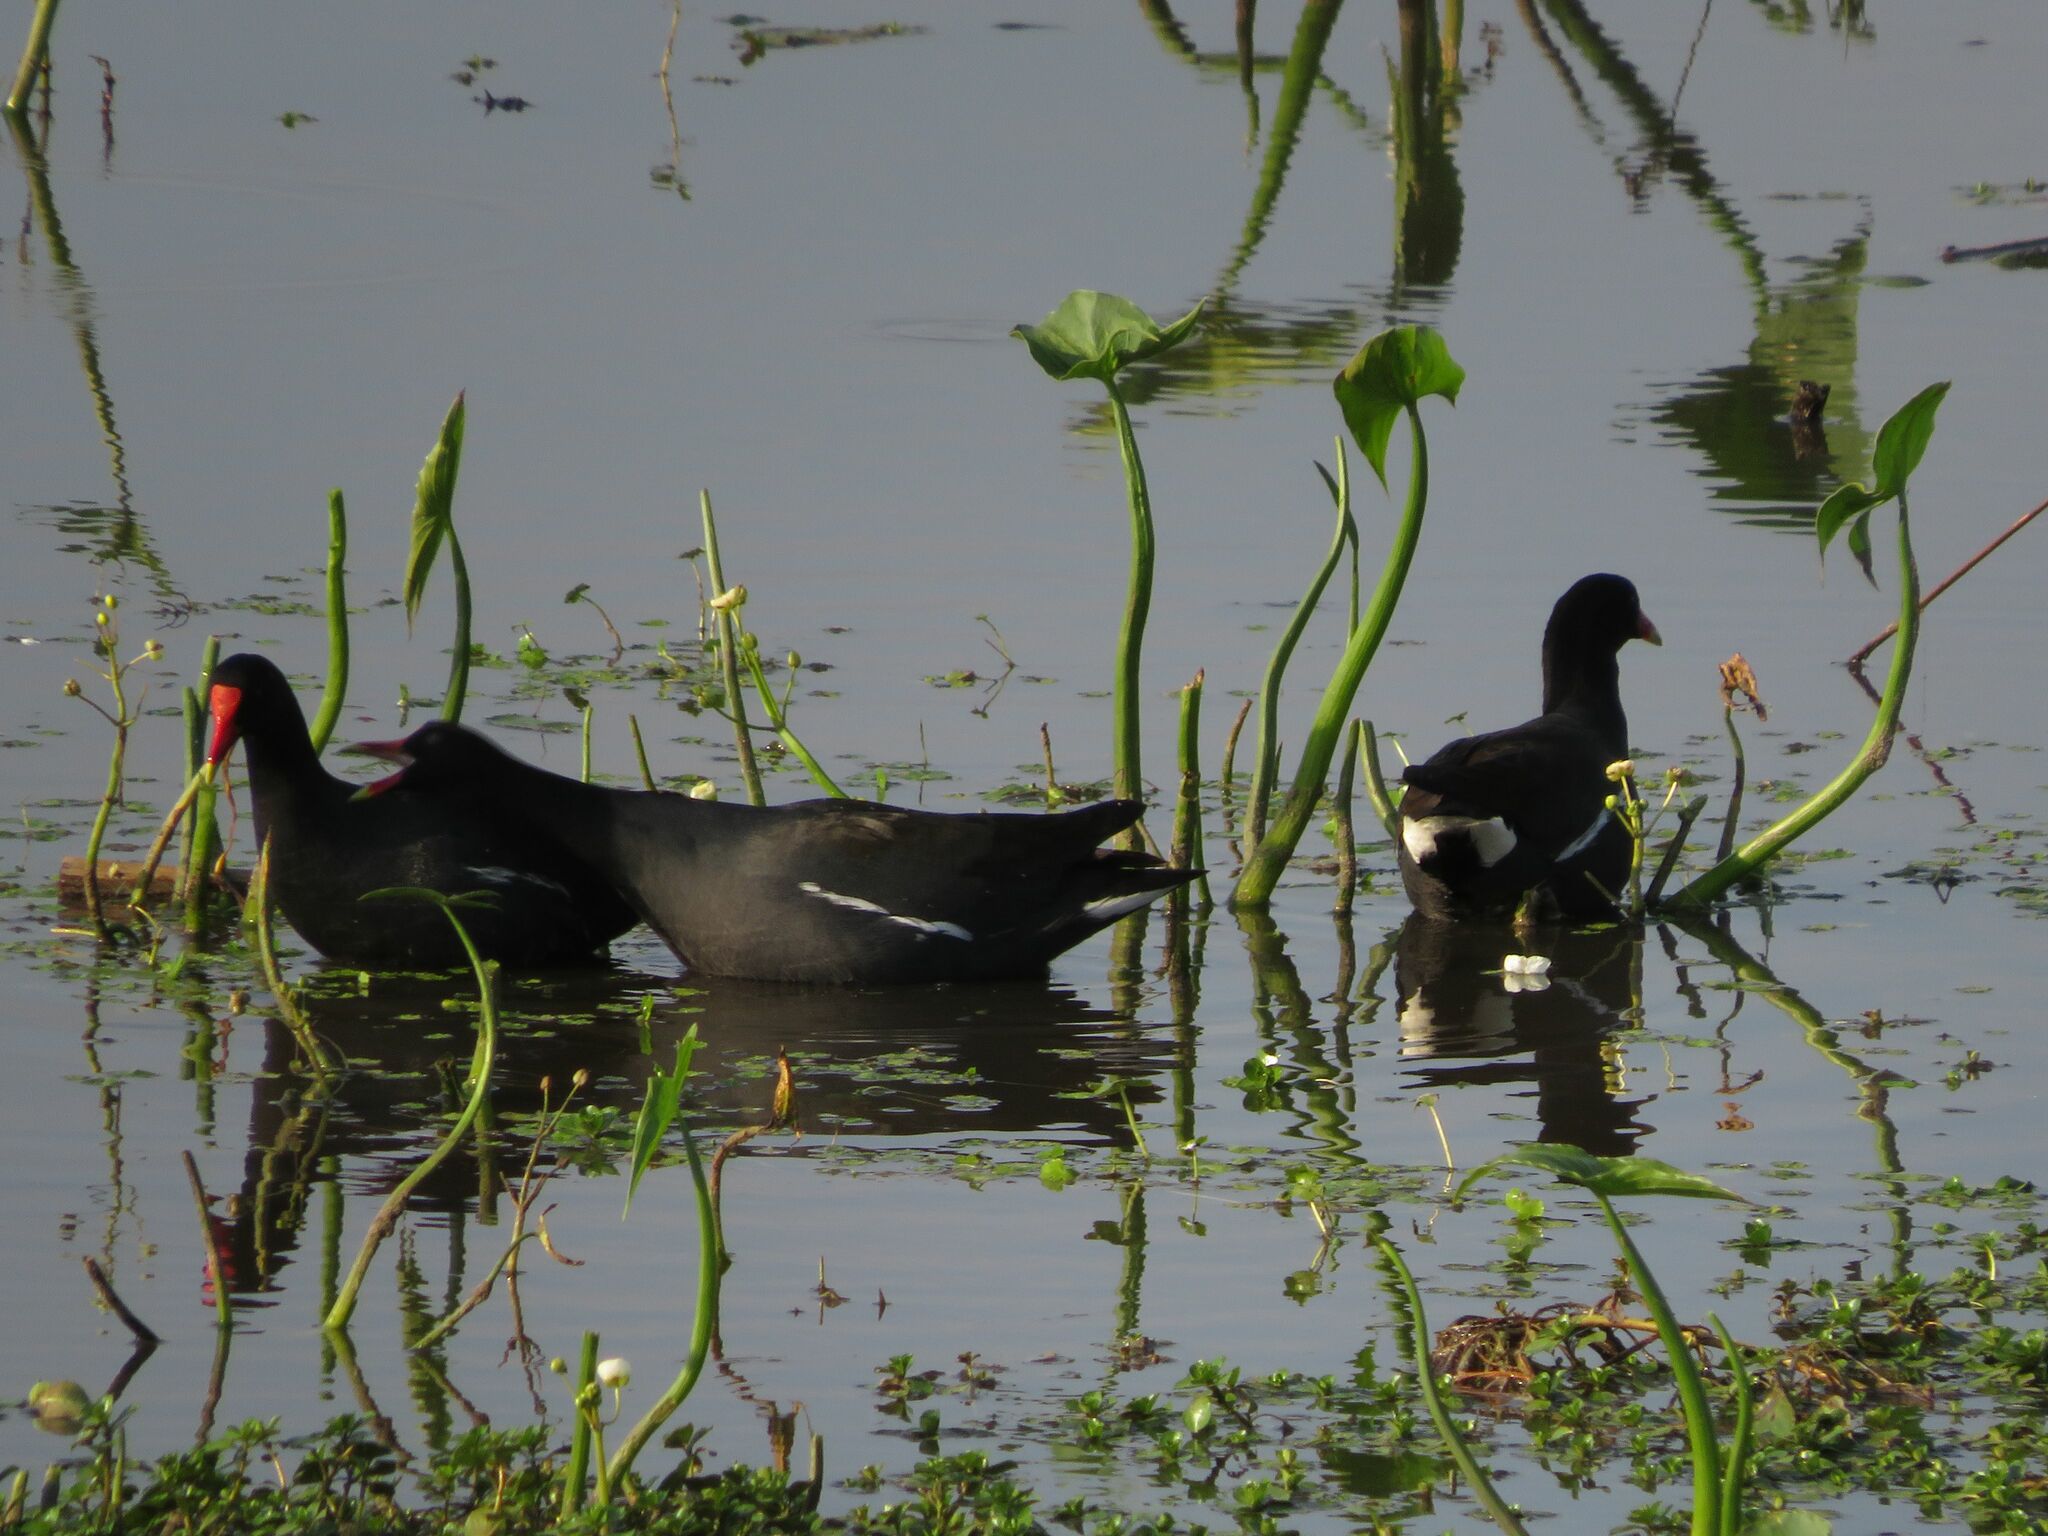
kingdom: Animalia
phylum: Chordata
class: Aves
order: Gruiformes
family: Rallidae
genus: Gallinula
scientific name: Gallinula chloropus
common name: Common moorhen
